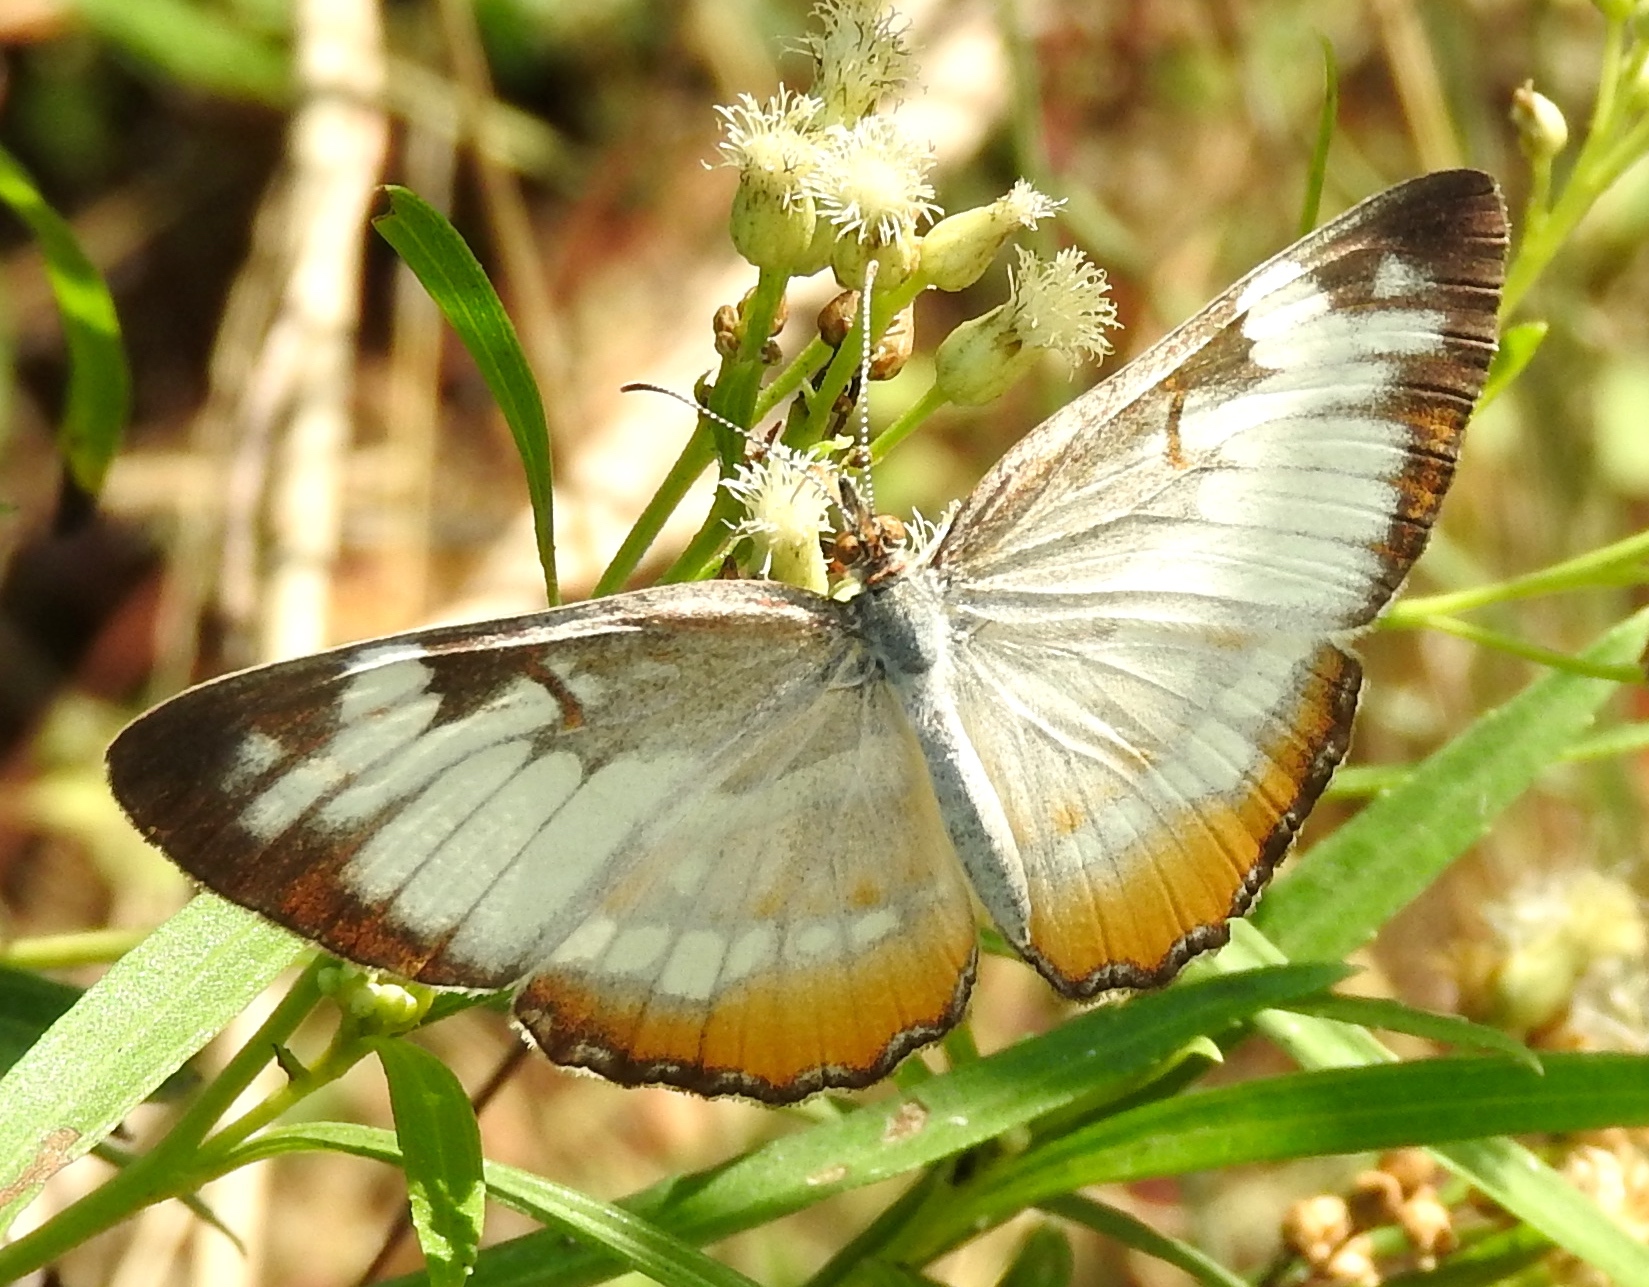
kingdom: Animalia
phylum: Arthropoda
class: Insecta
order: Lepidoptera
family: Nymphalidae
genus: Mestra
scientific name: Mestra amymone
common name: Common mestra
